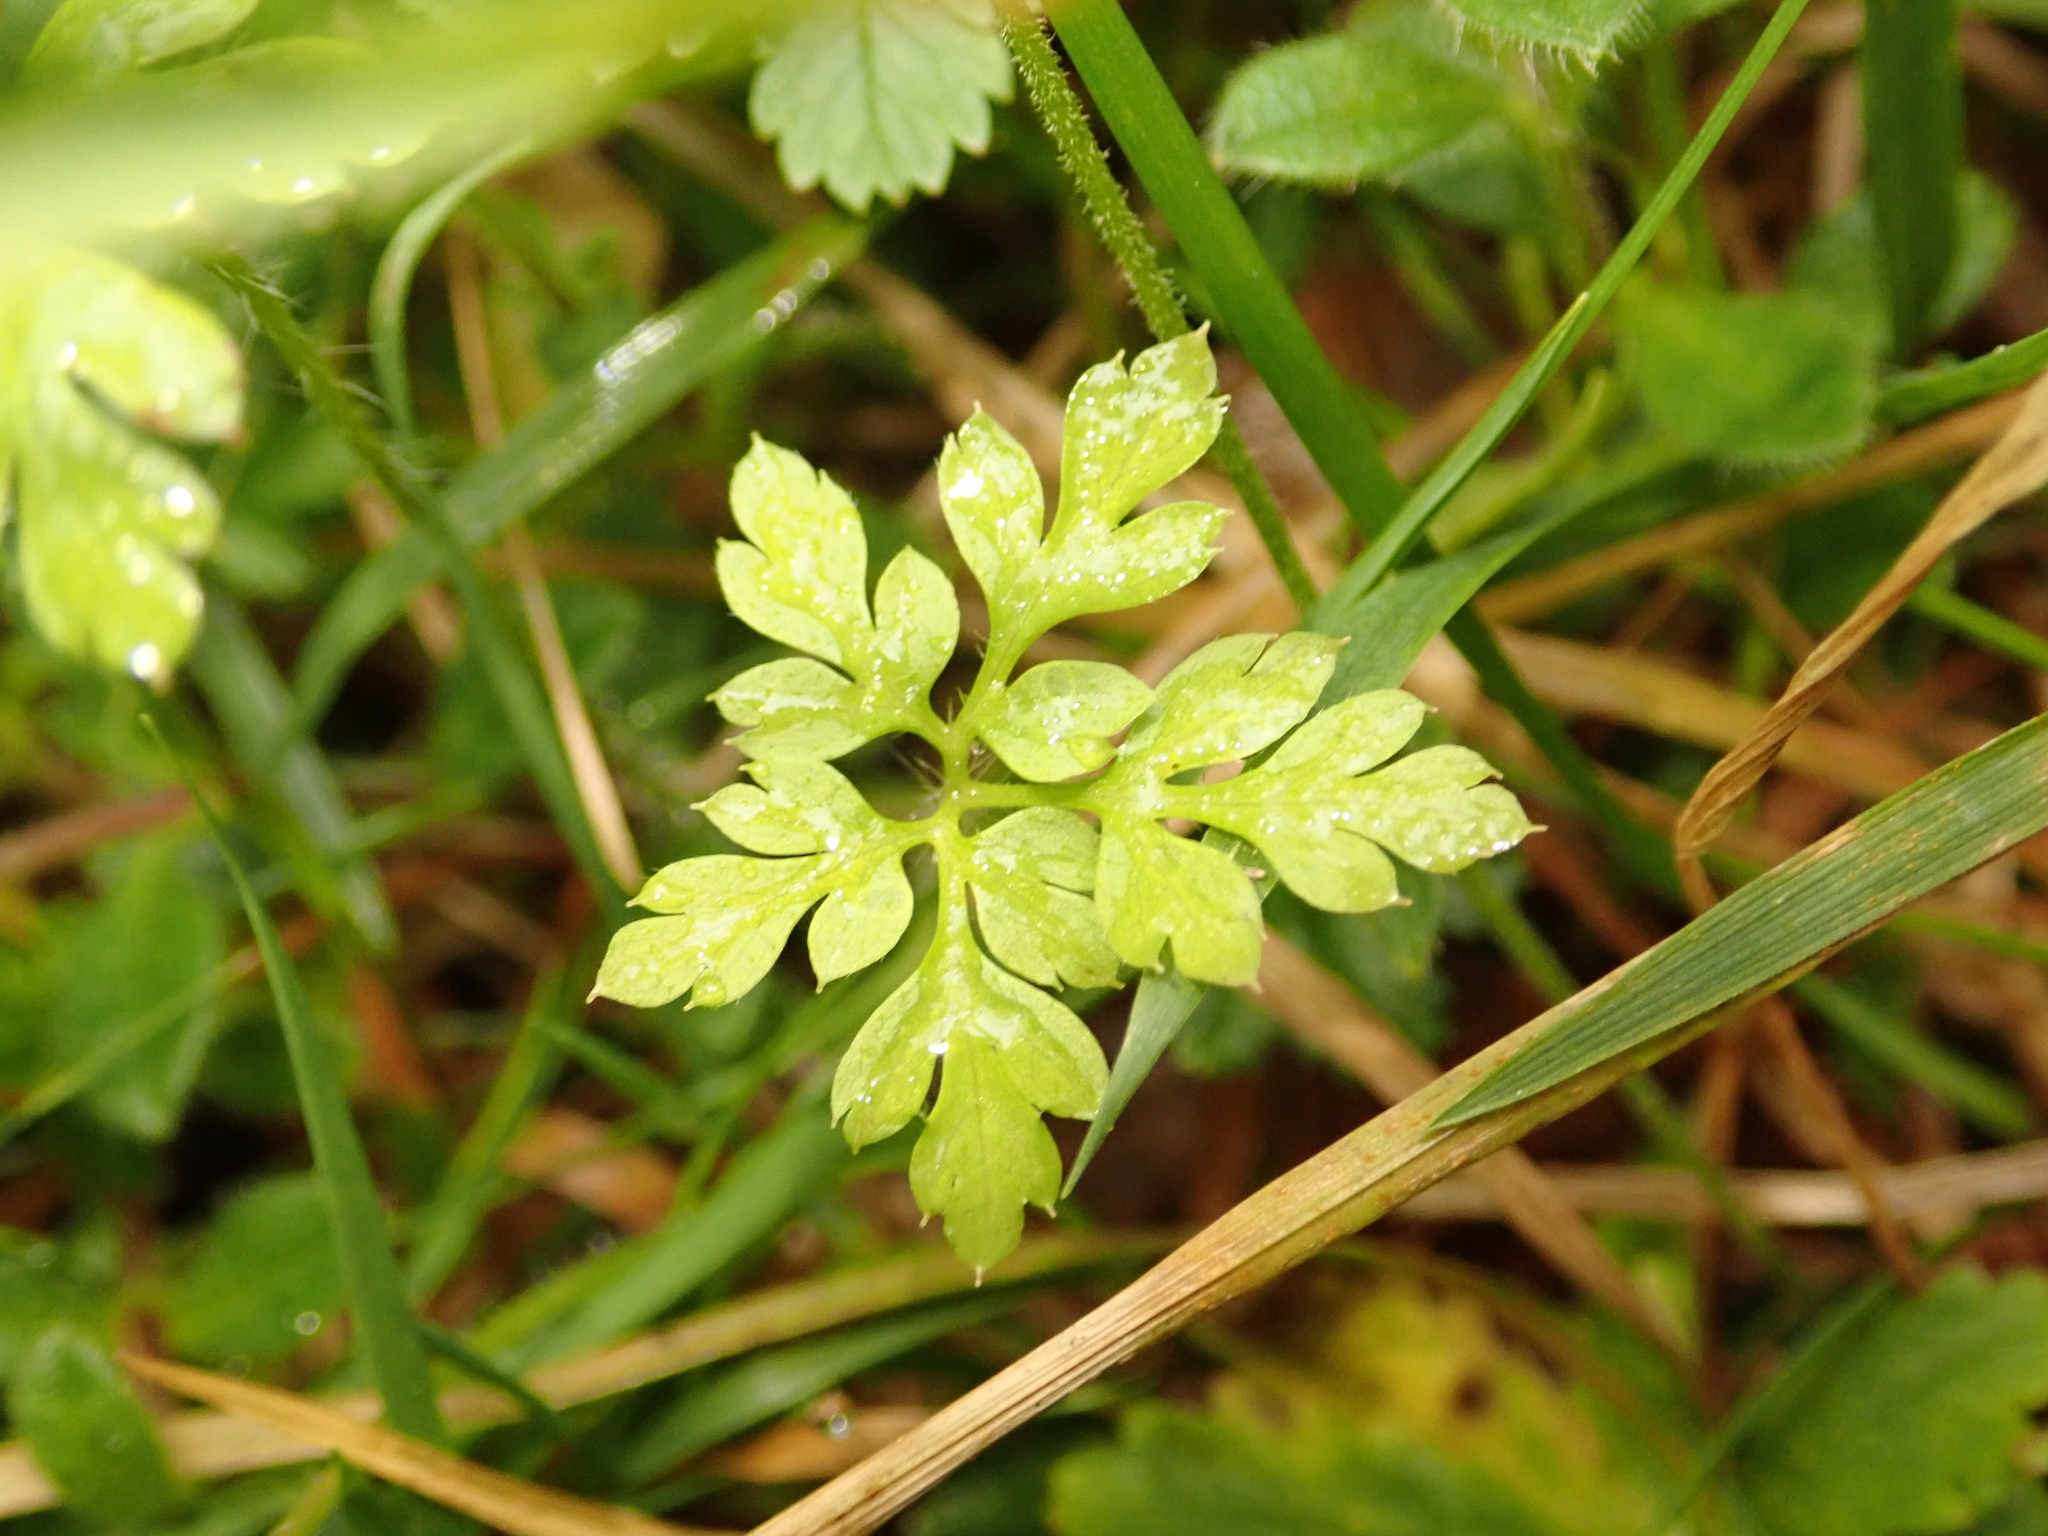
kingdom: Plantae
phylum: Tracheophyta
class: Magnoliopsida
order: Geraniales
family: Geraniaceae
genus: Geranium
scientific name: Geranium robertianum
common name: Herb-robert
